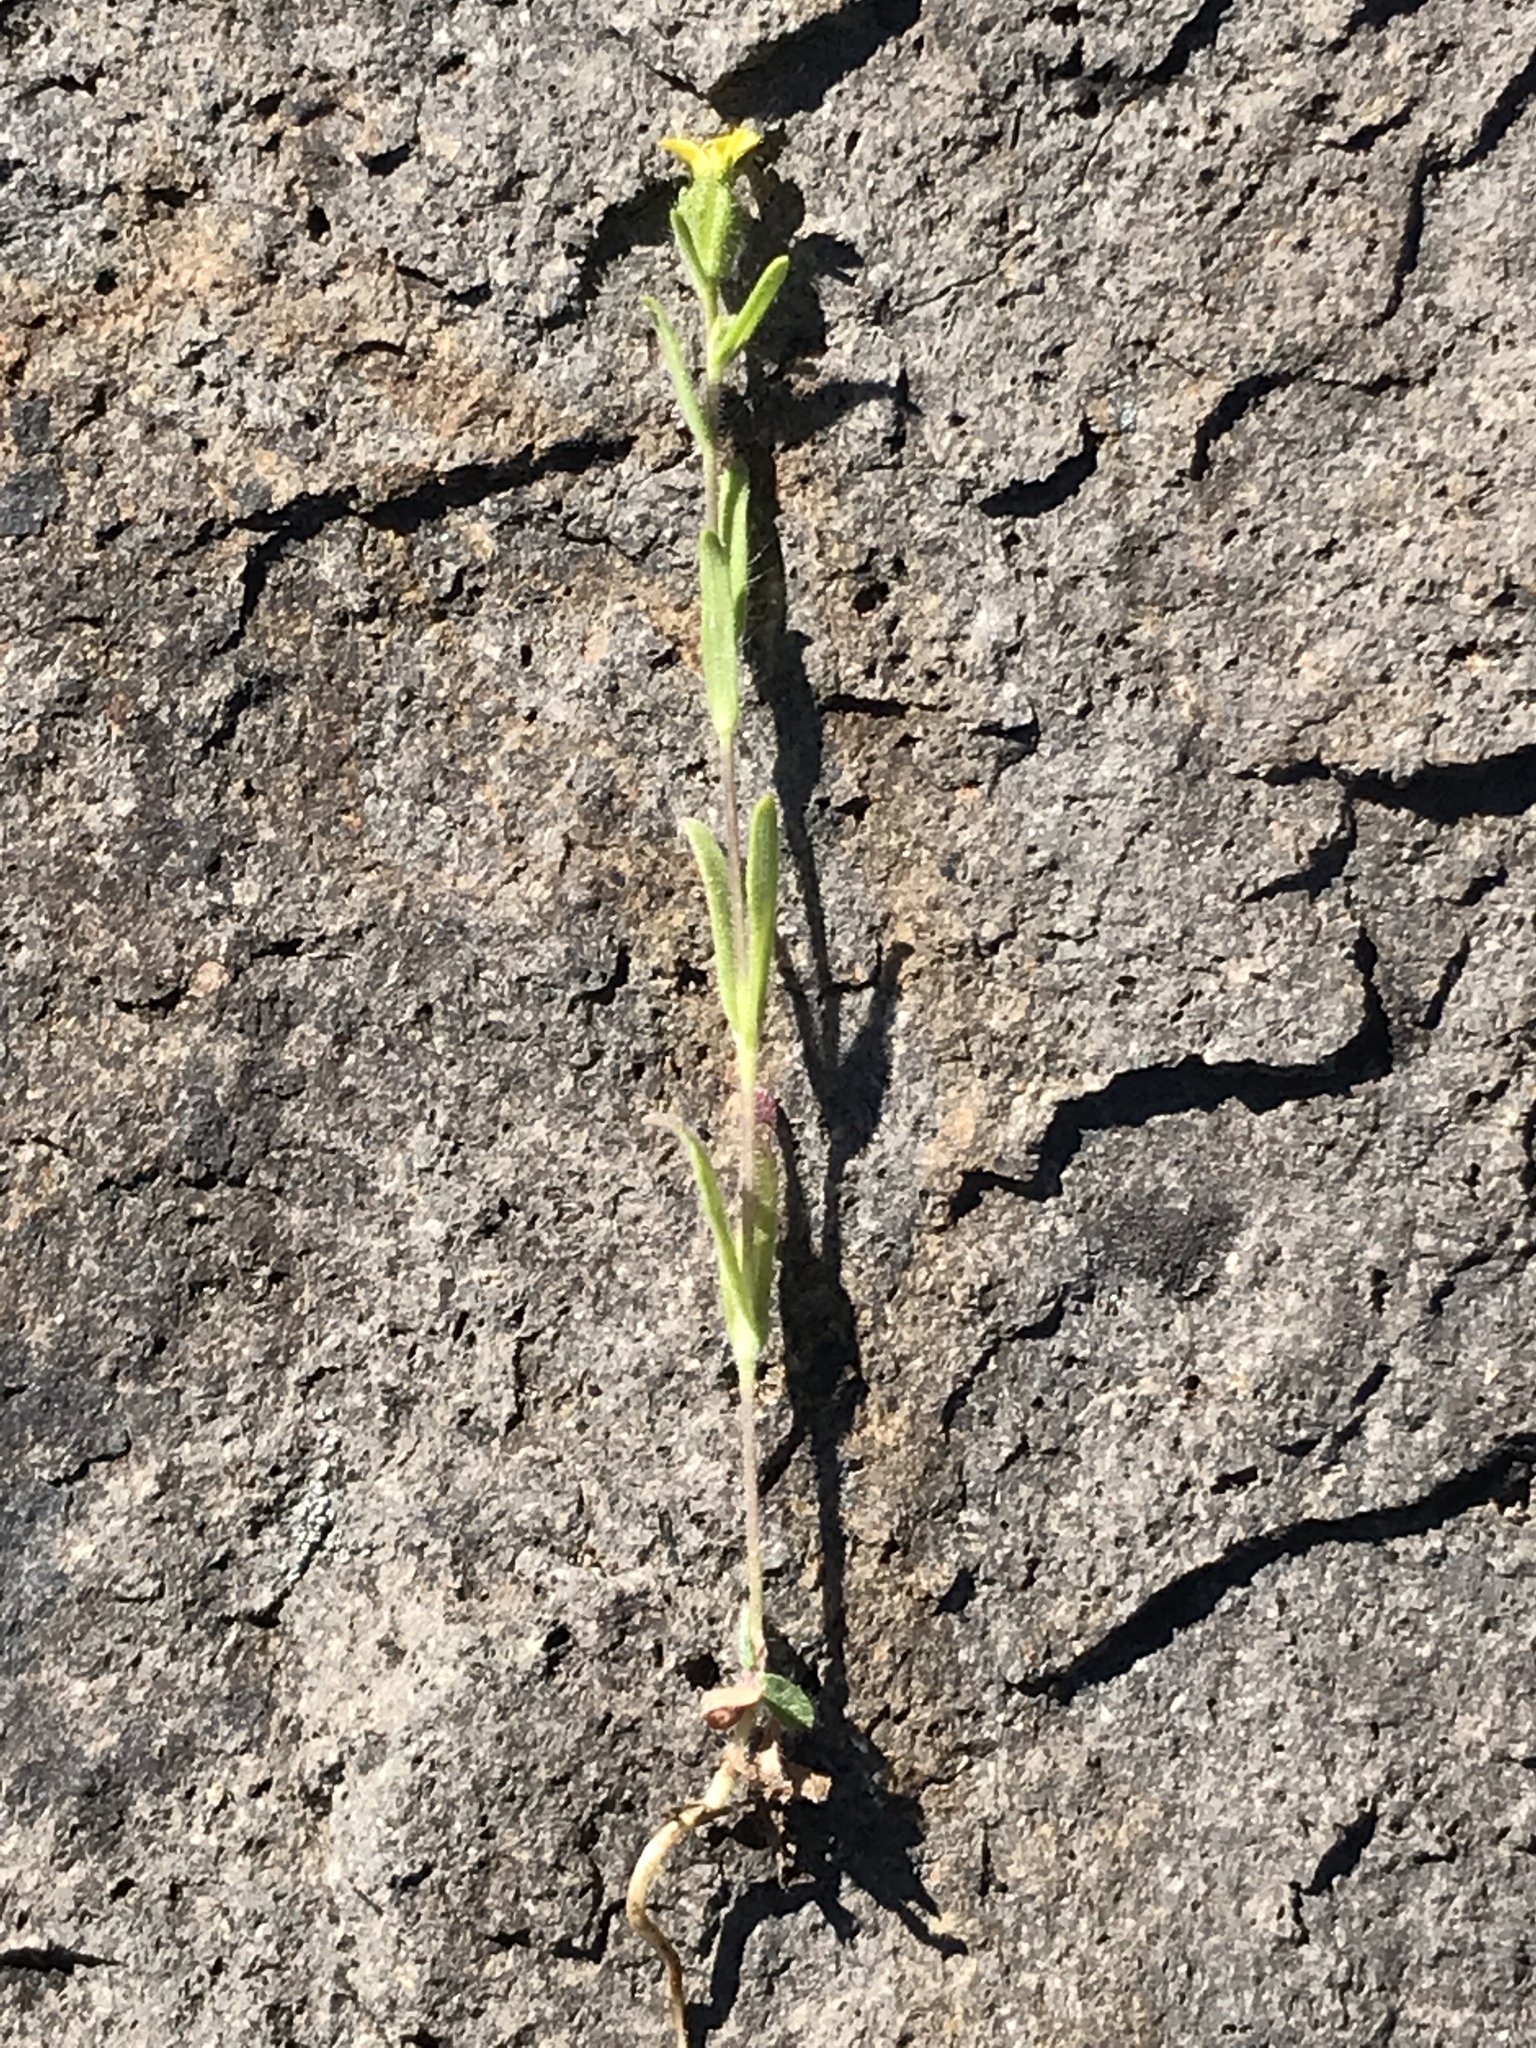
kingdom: Plantae
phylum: Tracheophyta
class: Magnoliopsida
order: Asterales
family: Asteraceae
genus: Madia
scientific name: Madia gracilis
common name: Grassy tarweed
